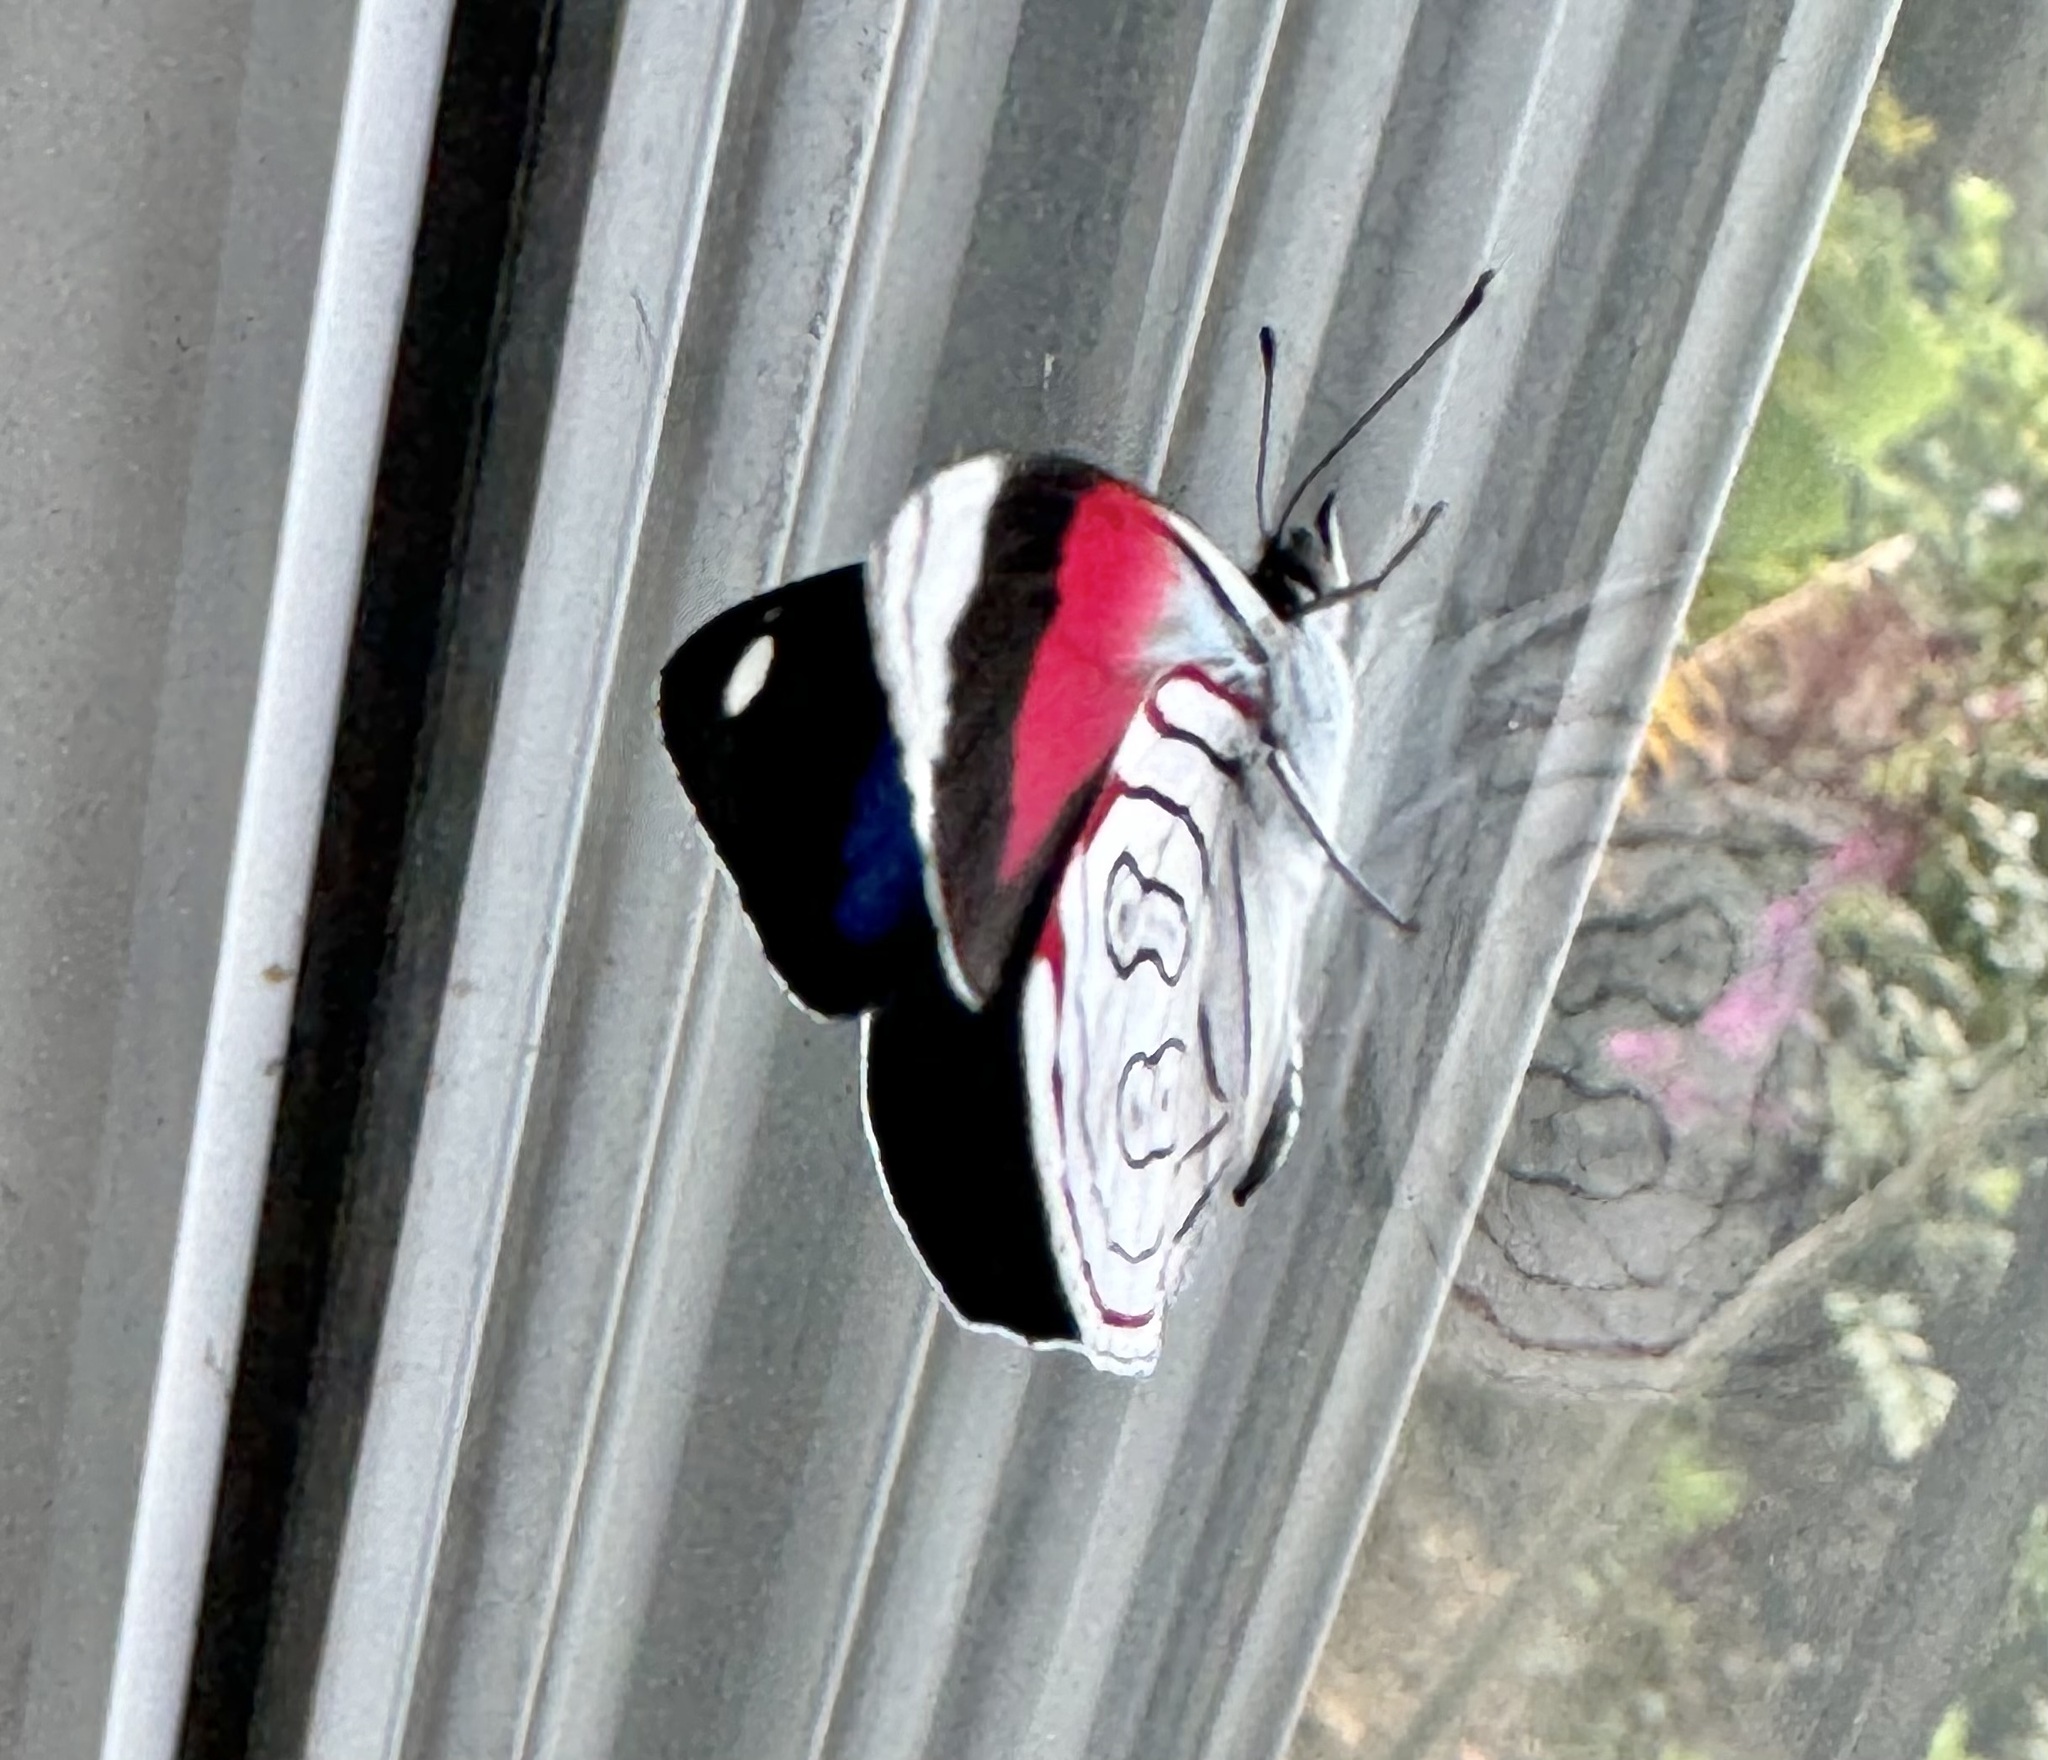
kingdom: Animalia
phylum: Arthropoda
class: Insecta
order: Lepidoptera
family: Nymphalidae
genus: Diaethria
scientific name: Diaethria astala
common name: Navy eighty-eight
